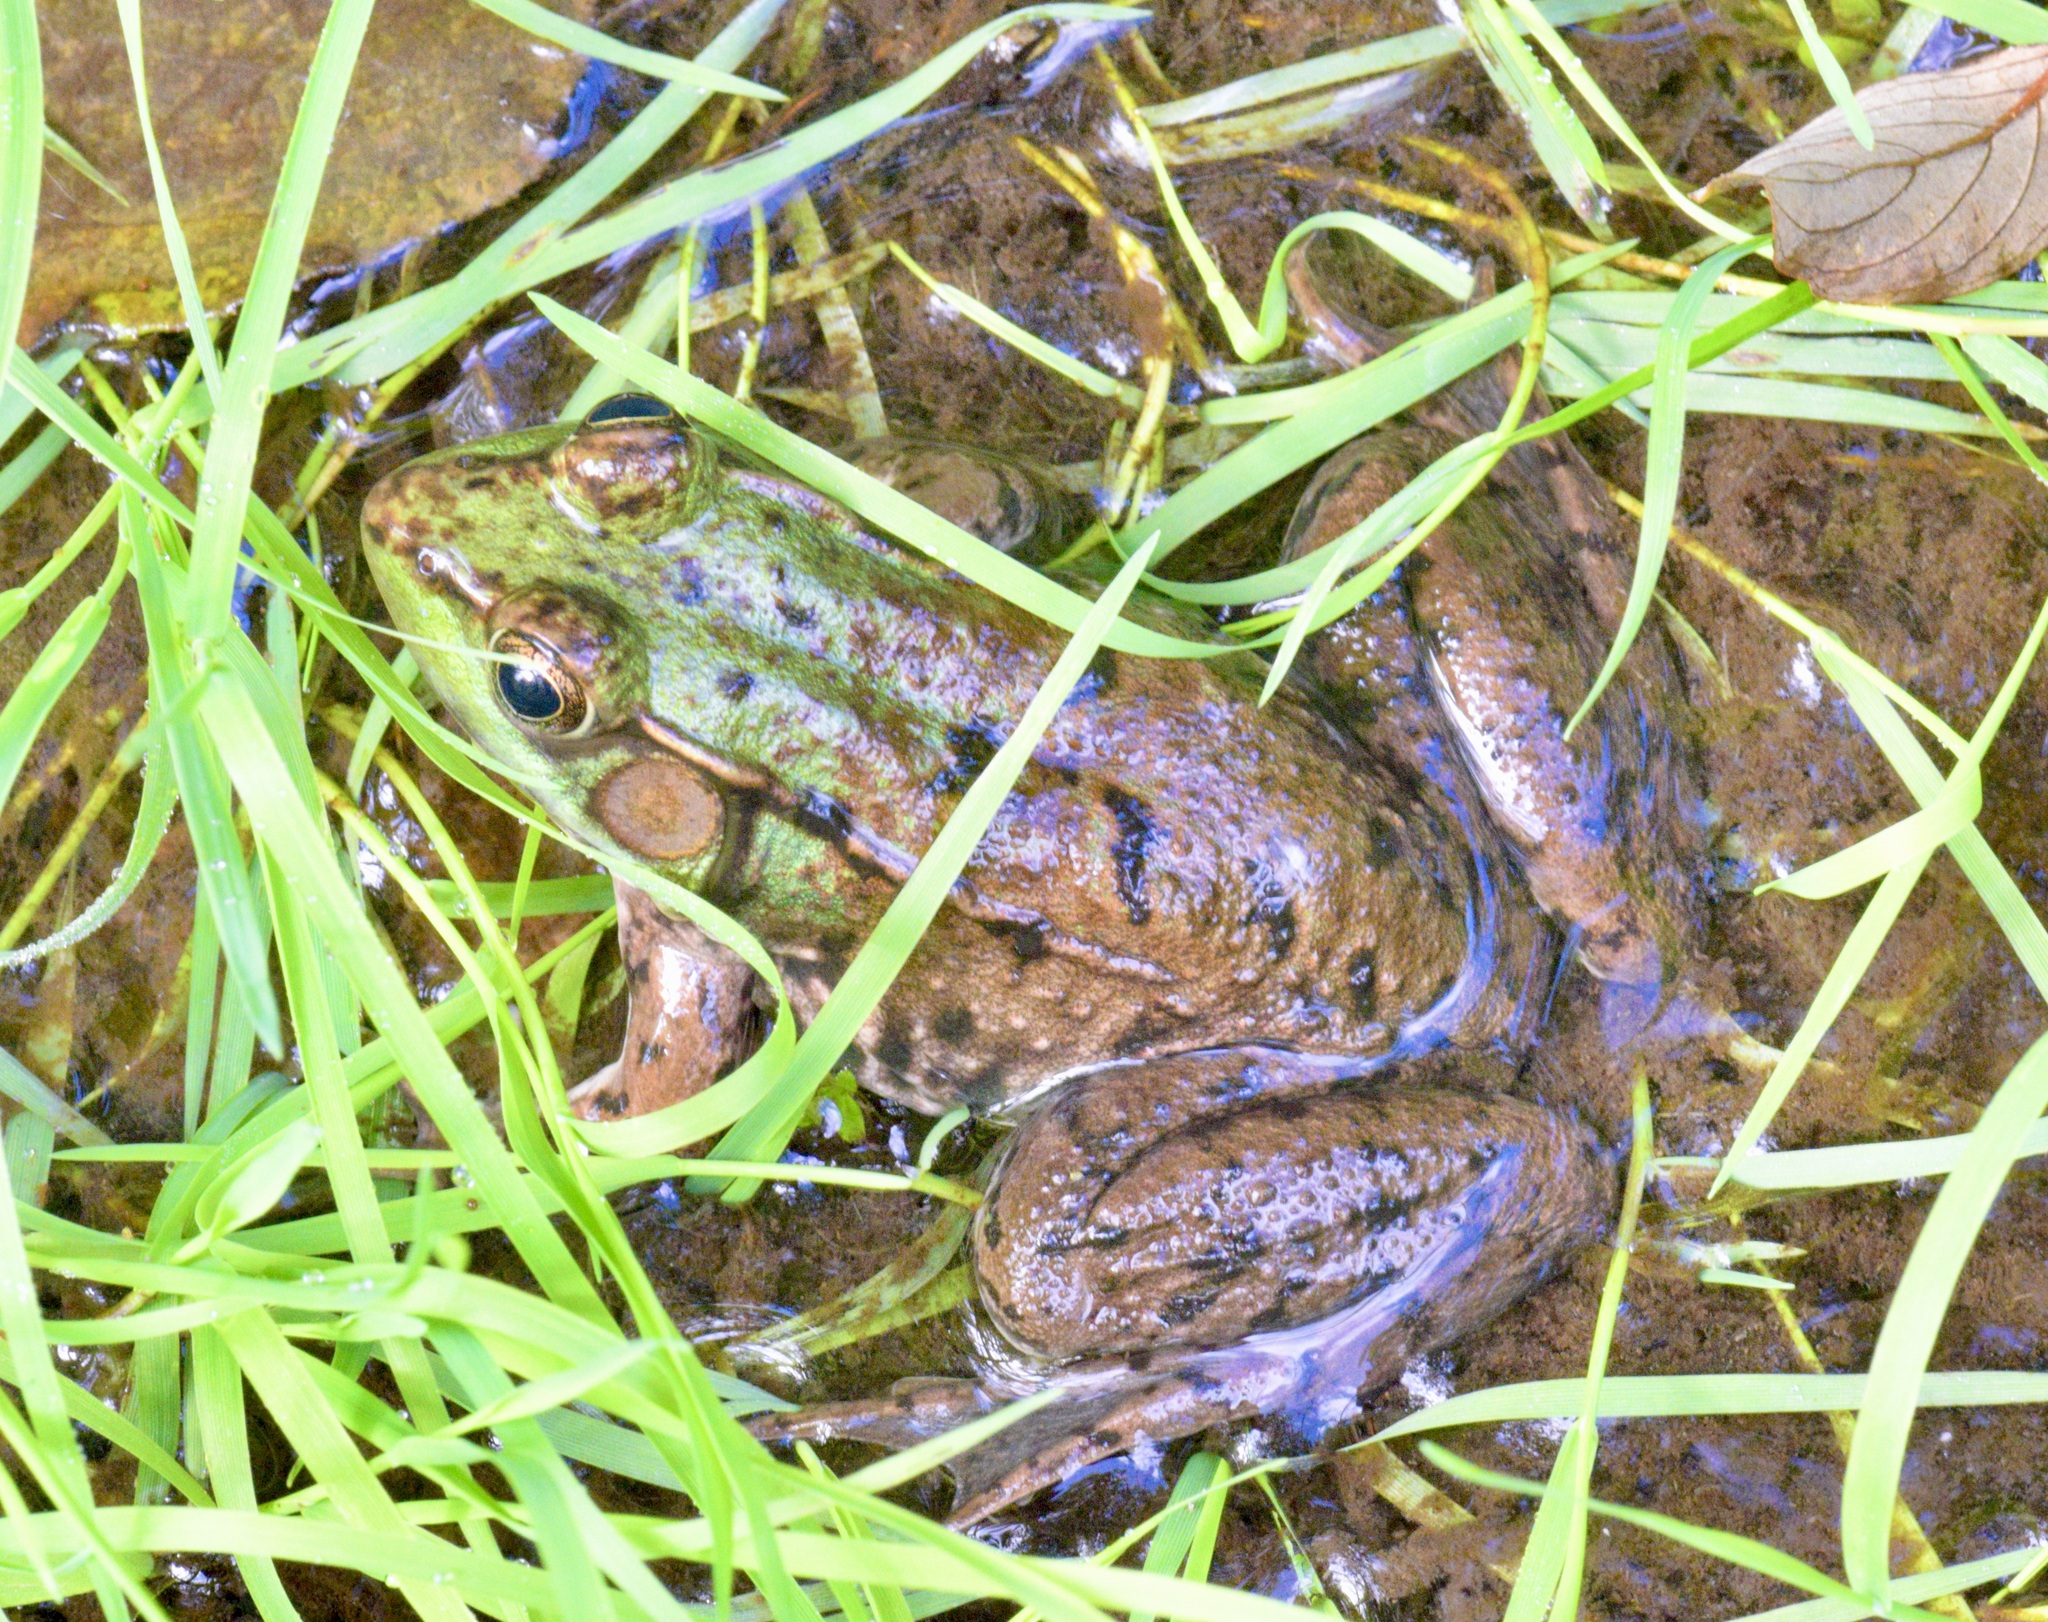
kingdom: Animalia
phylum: Chordata
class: Amphibia
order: Anura
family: Ranidae
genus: Lithobates
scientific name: Lithobates clamitans
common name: Green frog
